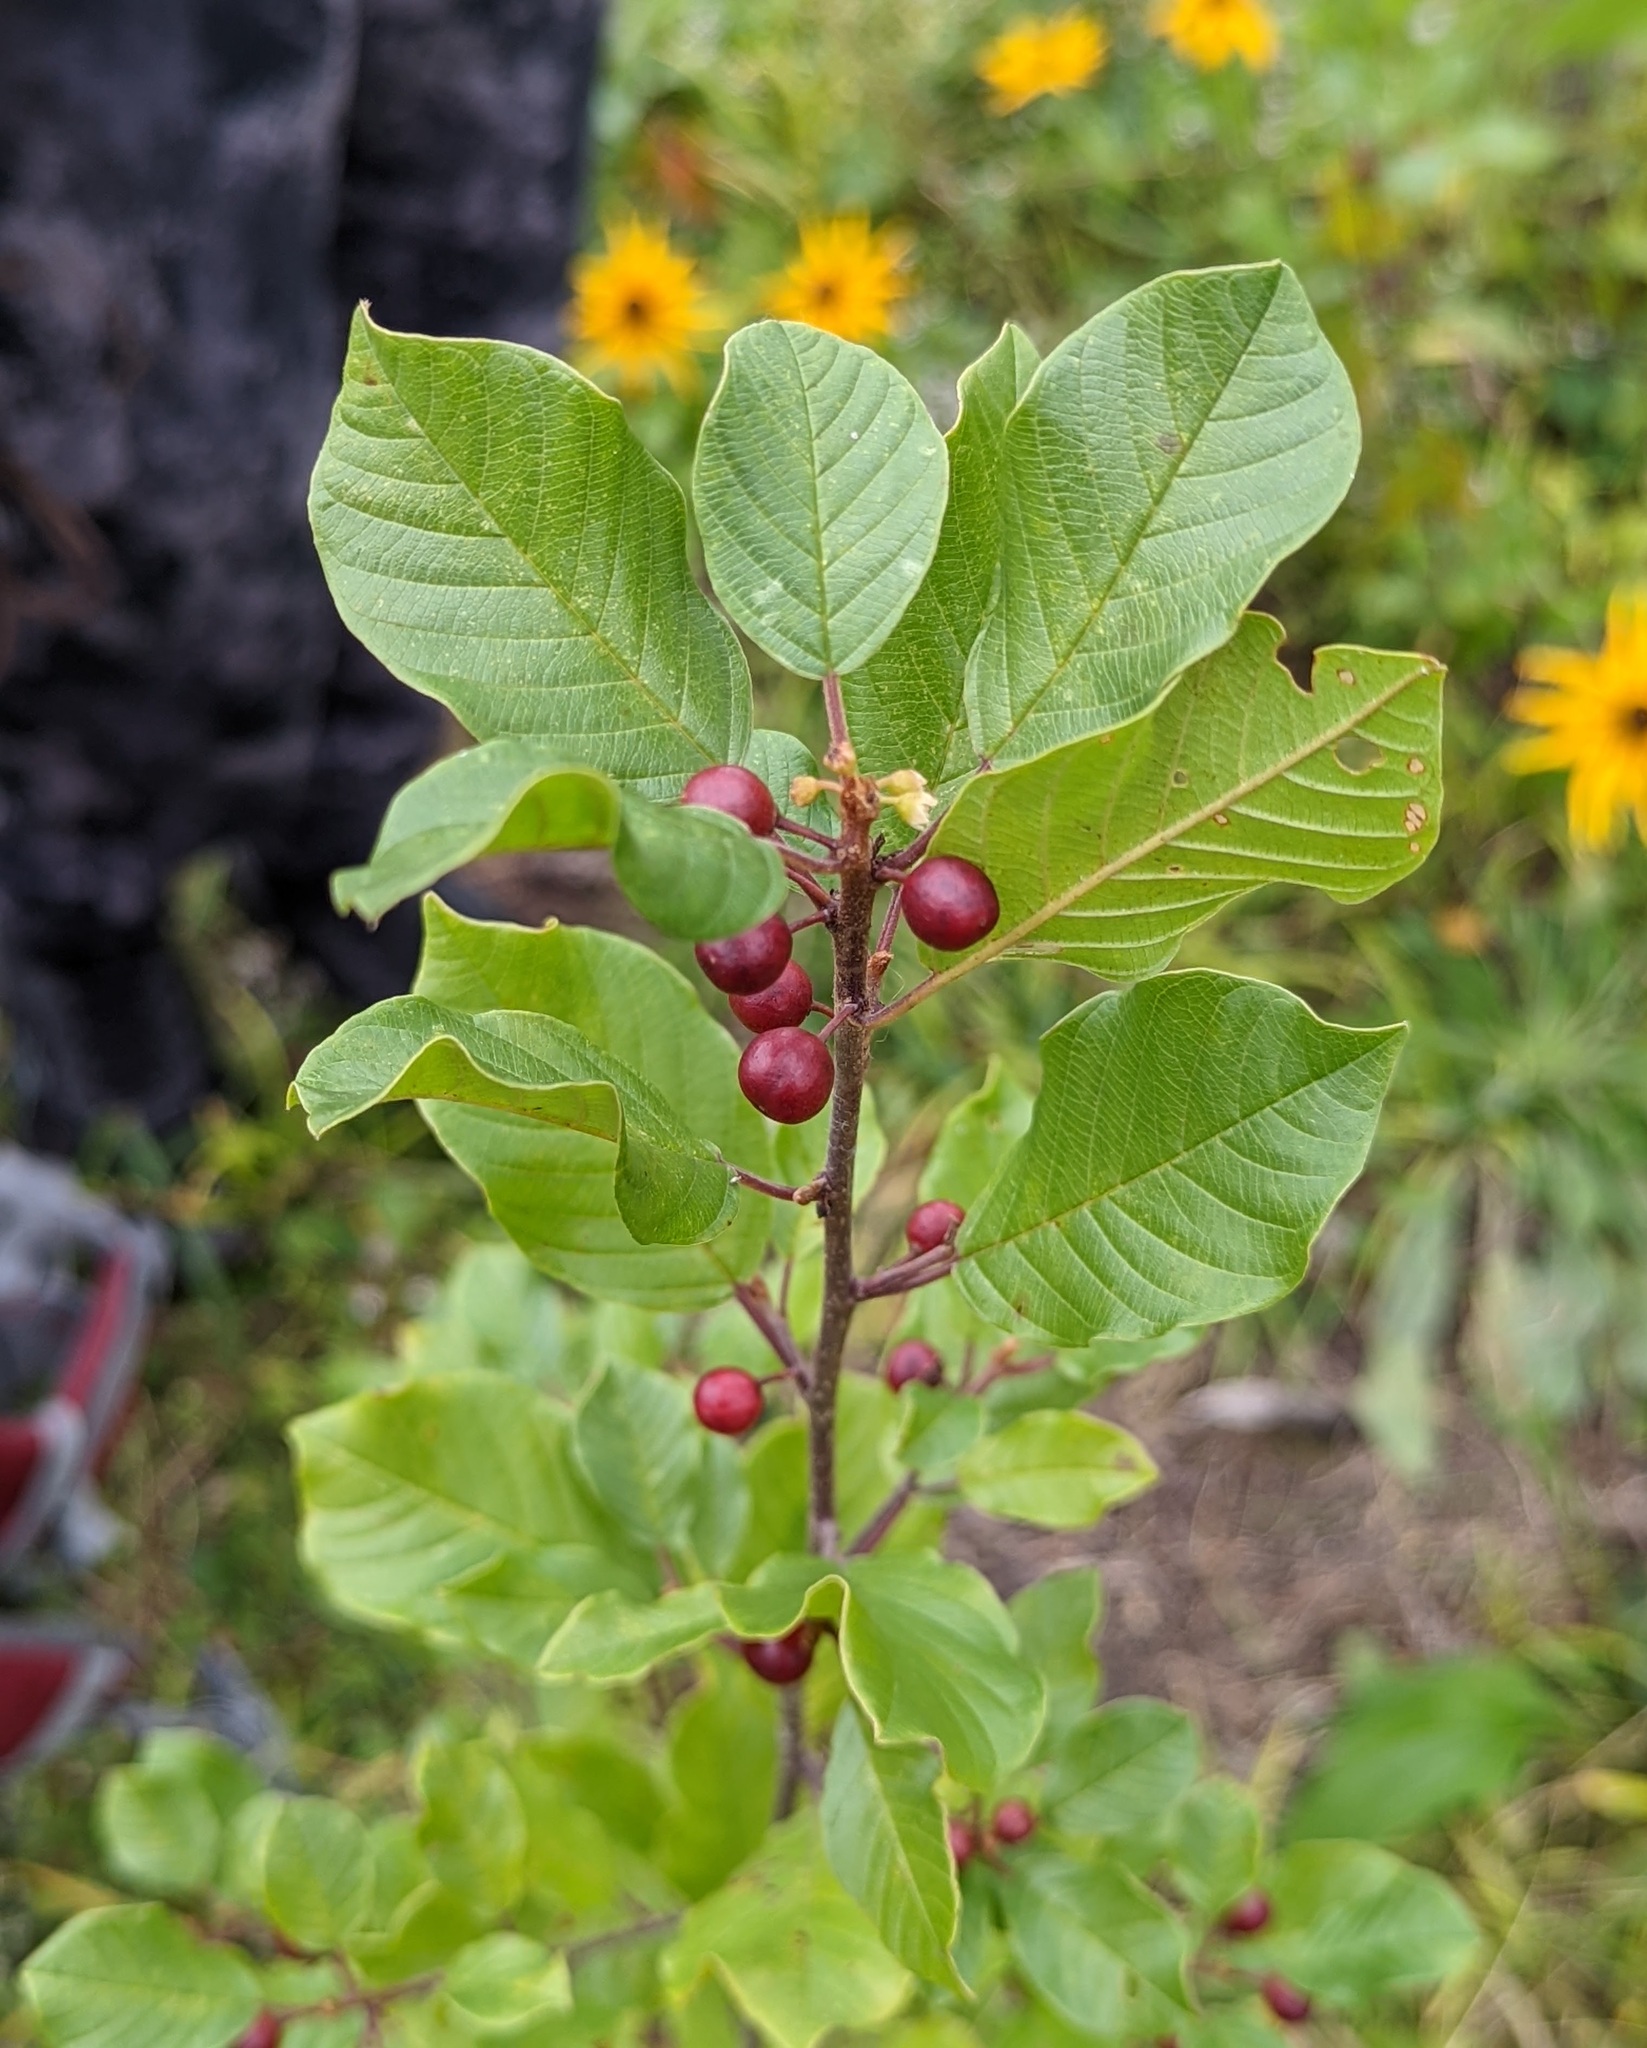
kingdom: Plantae
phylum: Tracheophyta
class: Magnoliopsida
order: Rosales
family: Rhamnaceae
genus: Frangula
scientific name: Frangula alnus
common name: Alder buckthorn
